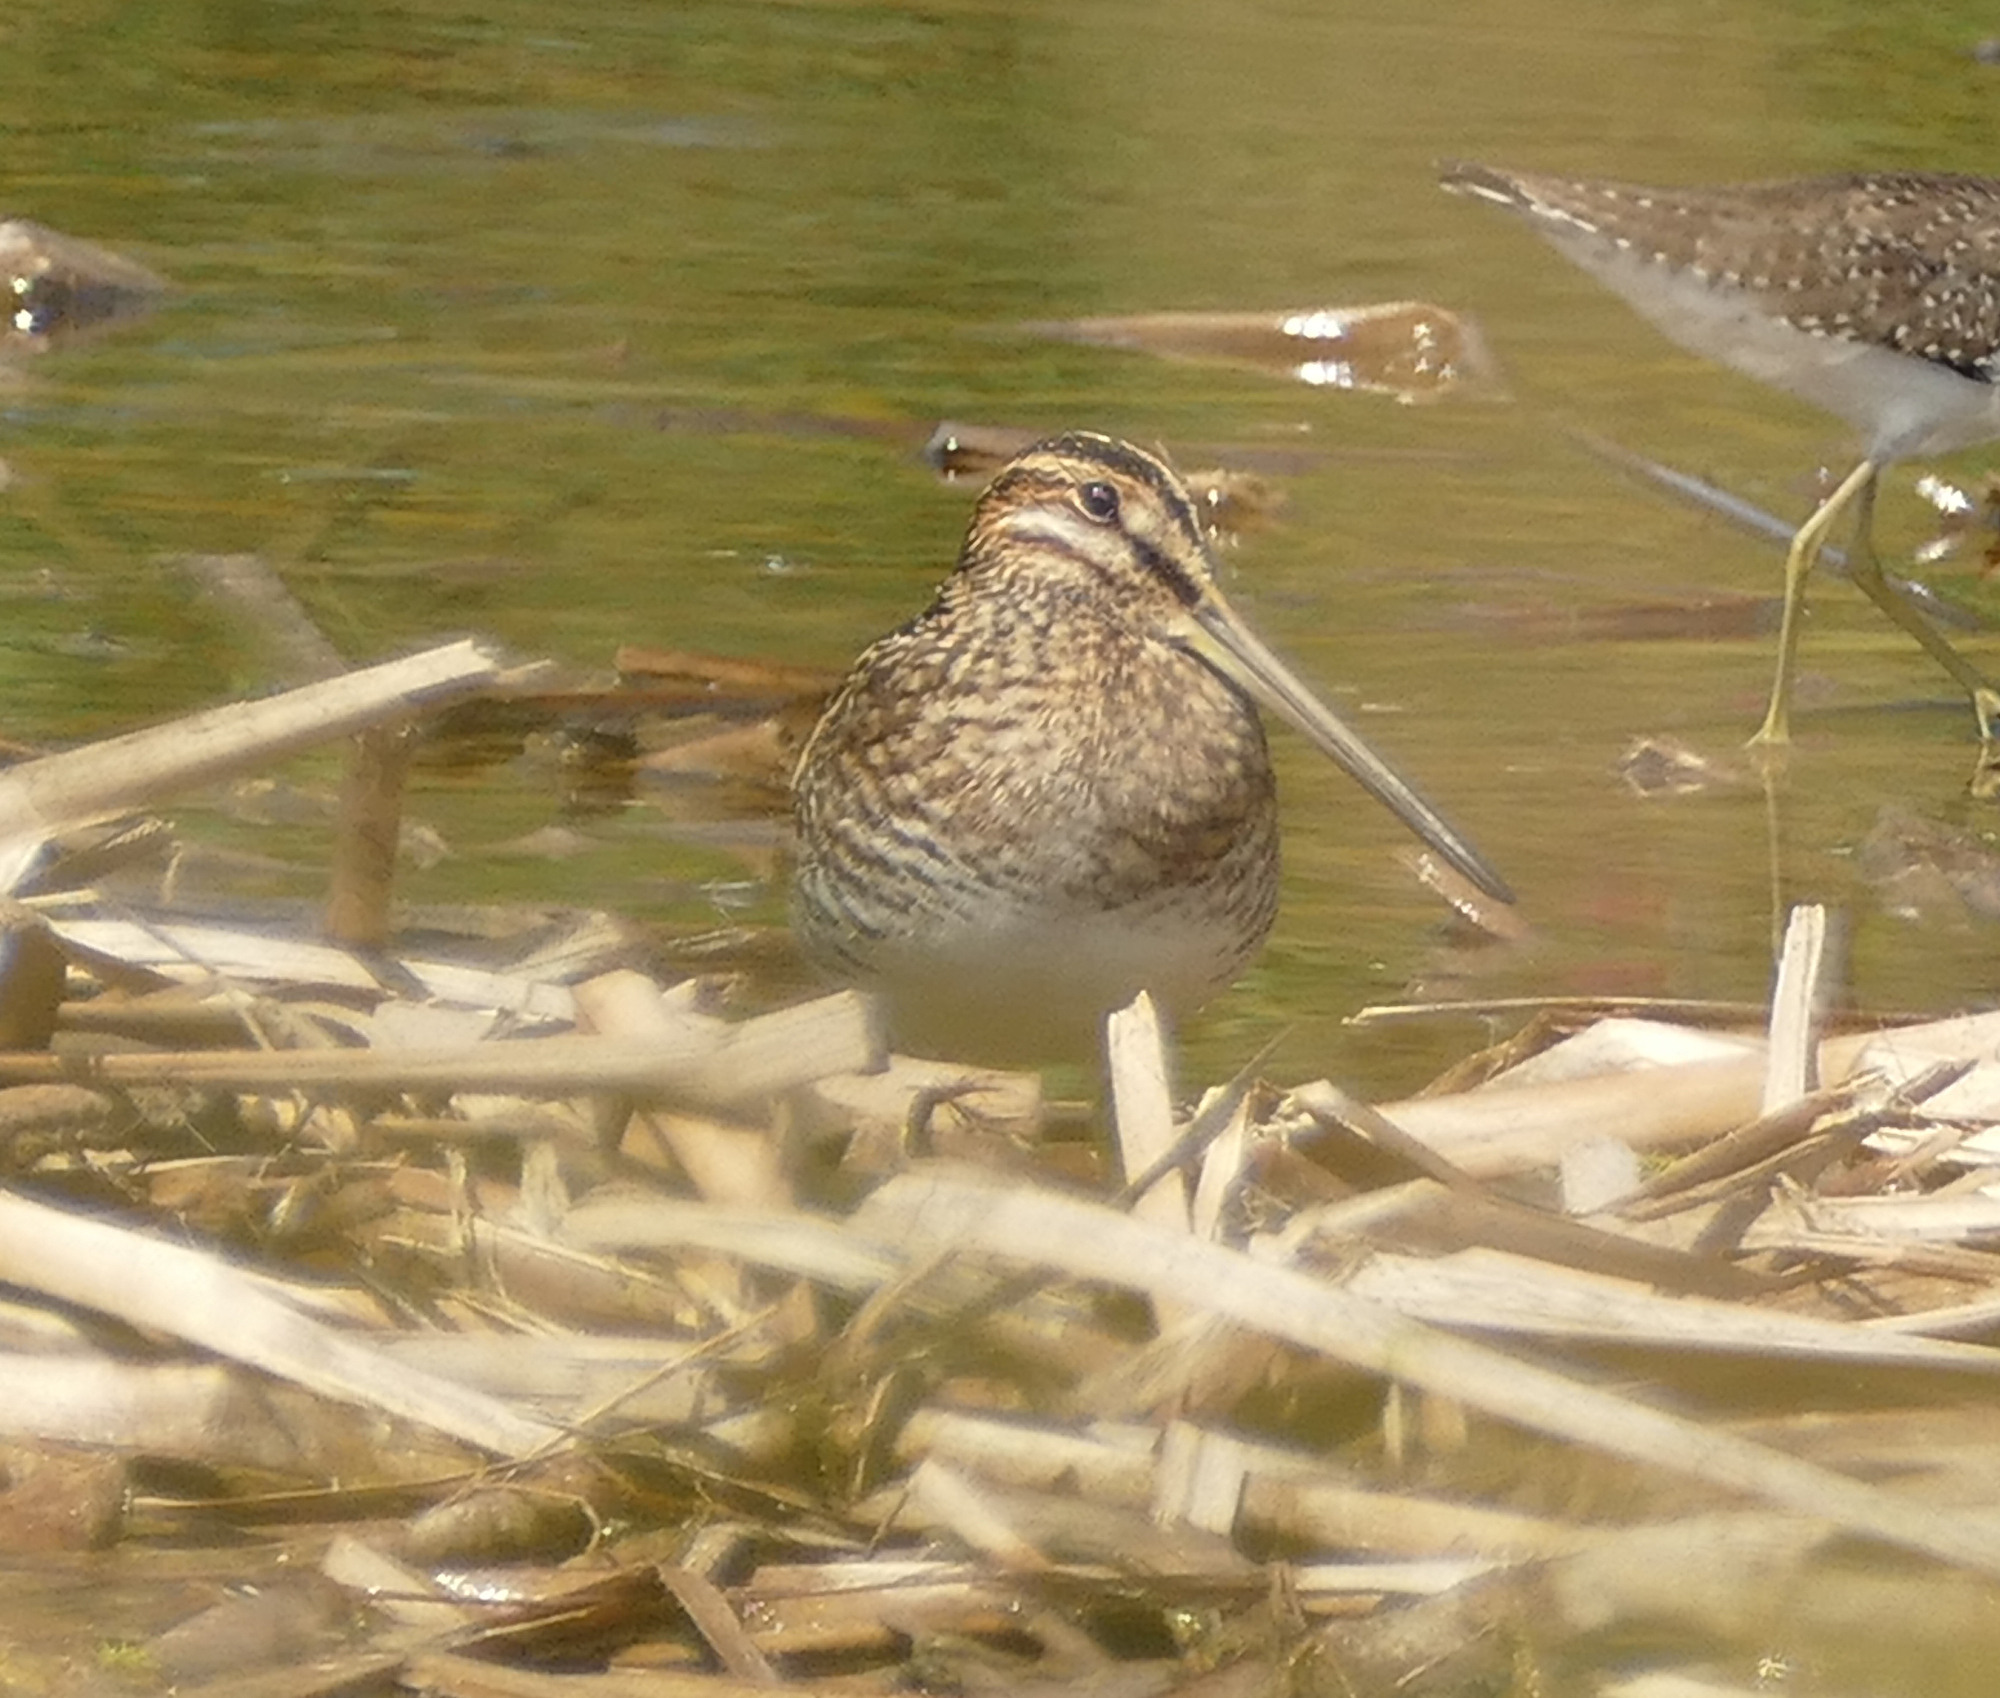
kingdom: Animalia
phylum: Chordata
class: Aves
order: Charadriiformes
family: Scolopacidae
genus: Gallinago
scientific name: Gallinago delicata
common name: Wilson's snipe
